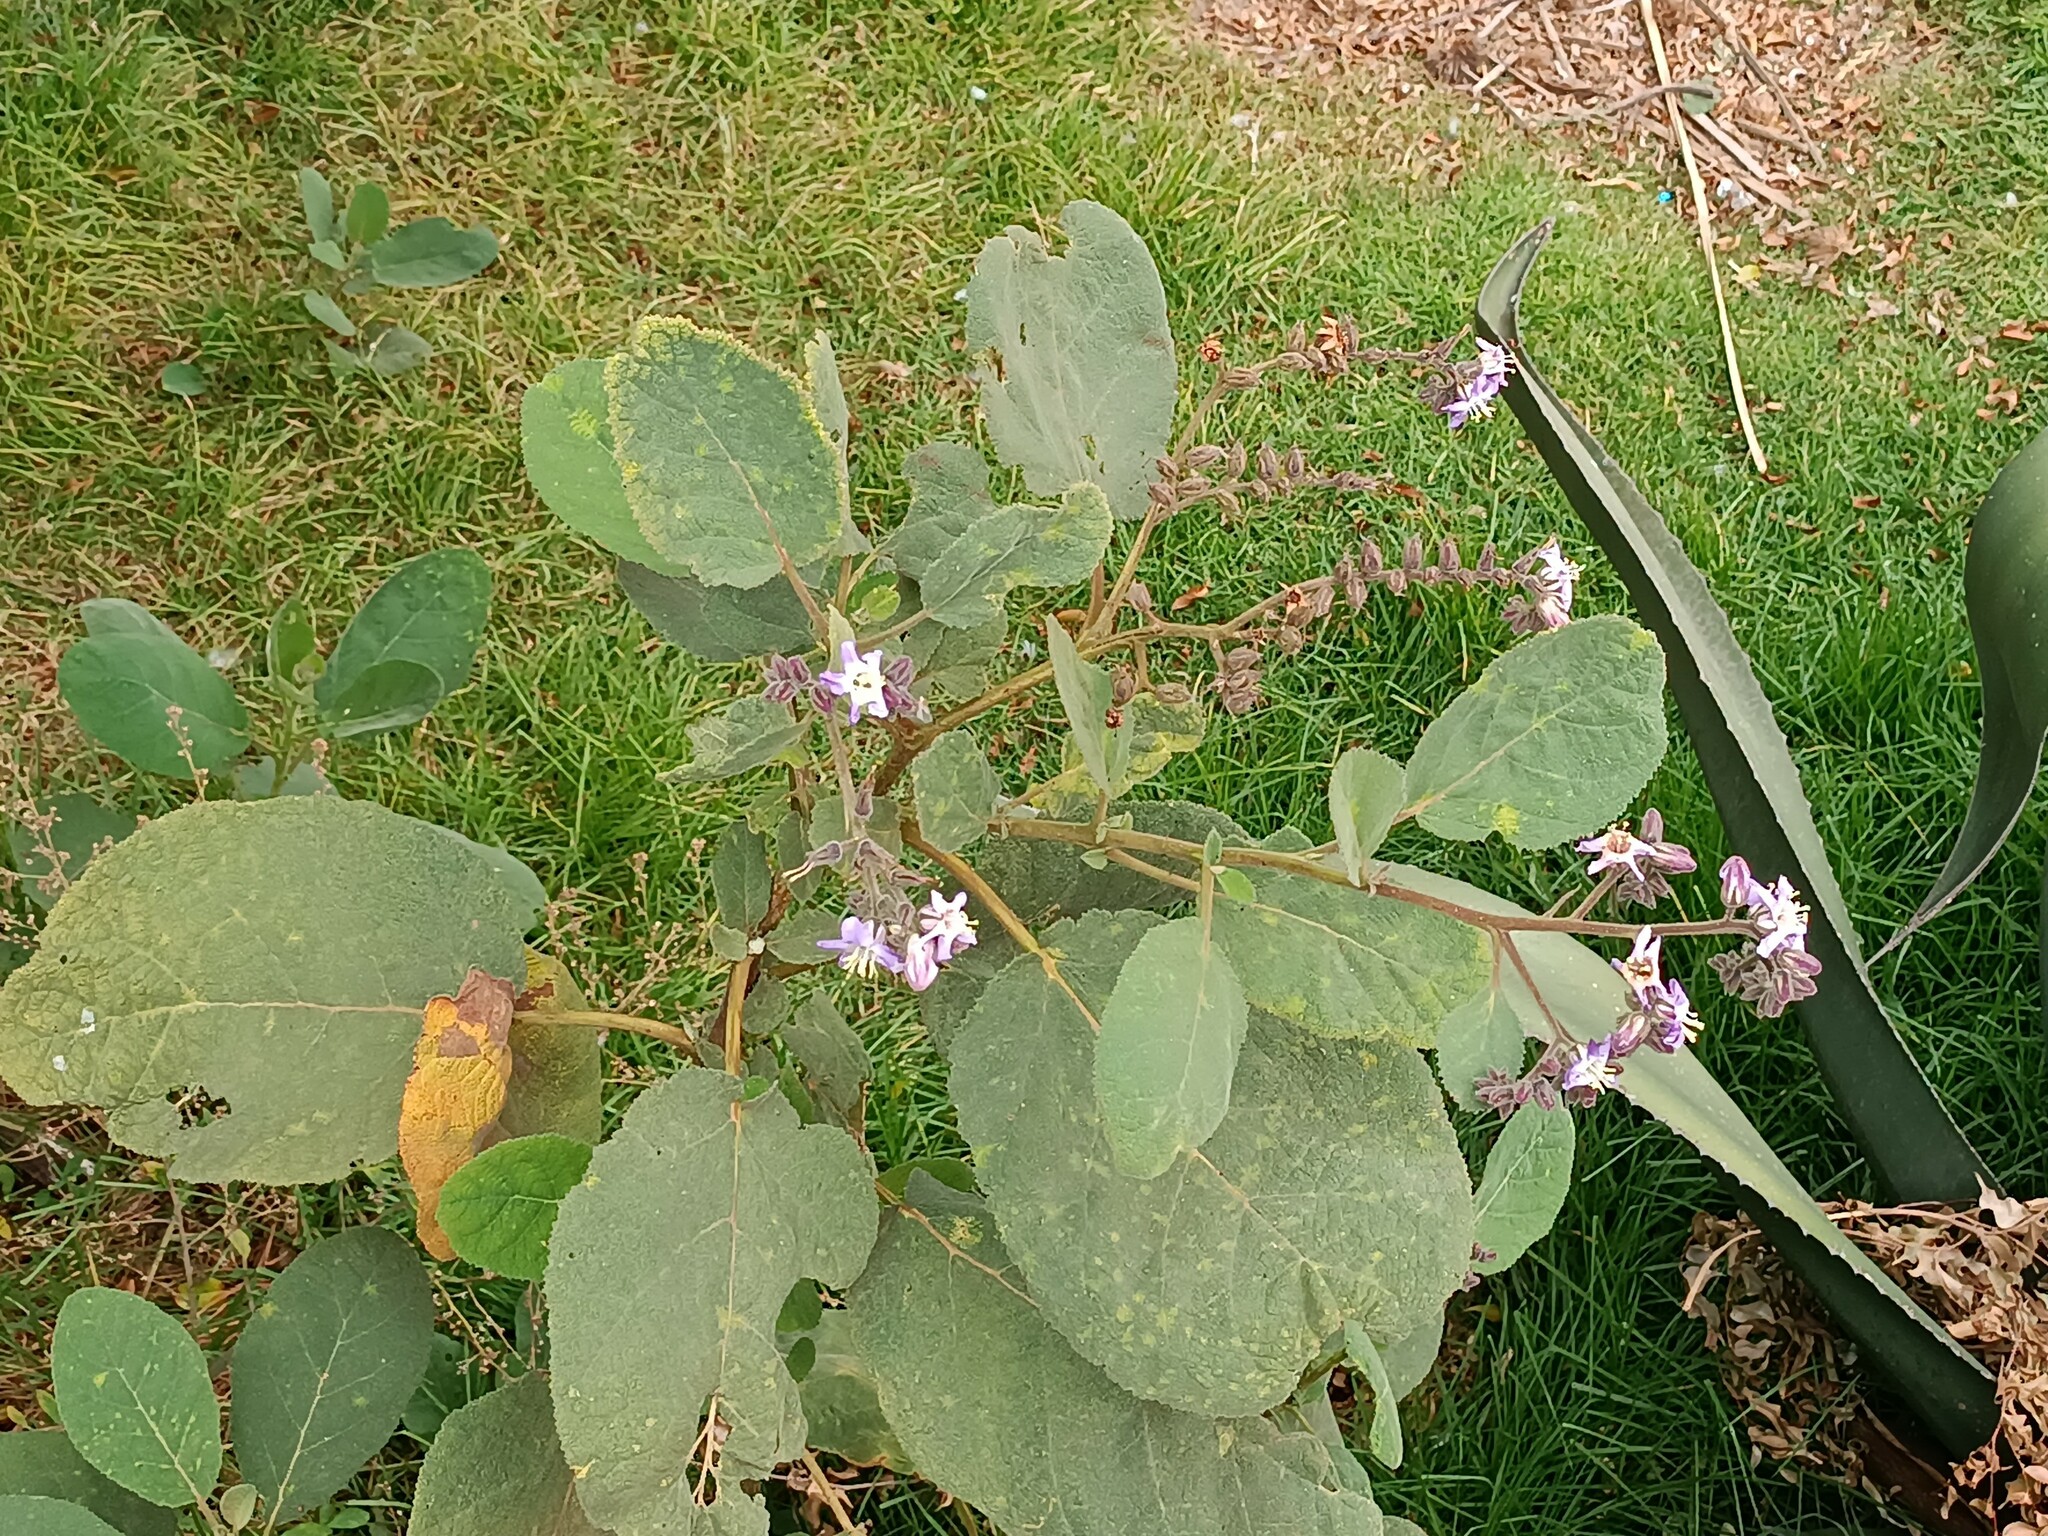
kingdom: Plantae
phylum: Tracheophyta
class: Magnoliopsida
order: Boraginales
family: Namaceae
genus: Wigandia
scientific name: Wigandia urens
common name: Caracus wigandia
